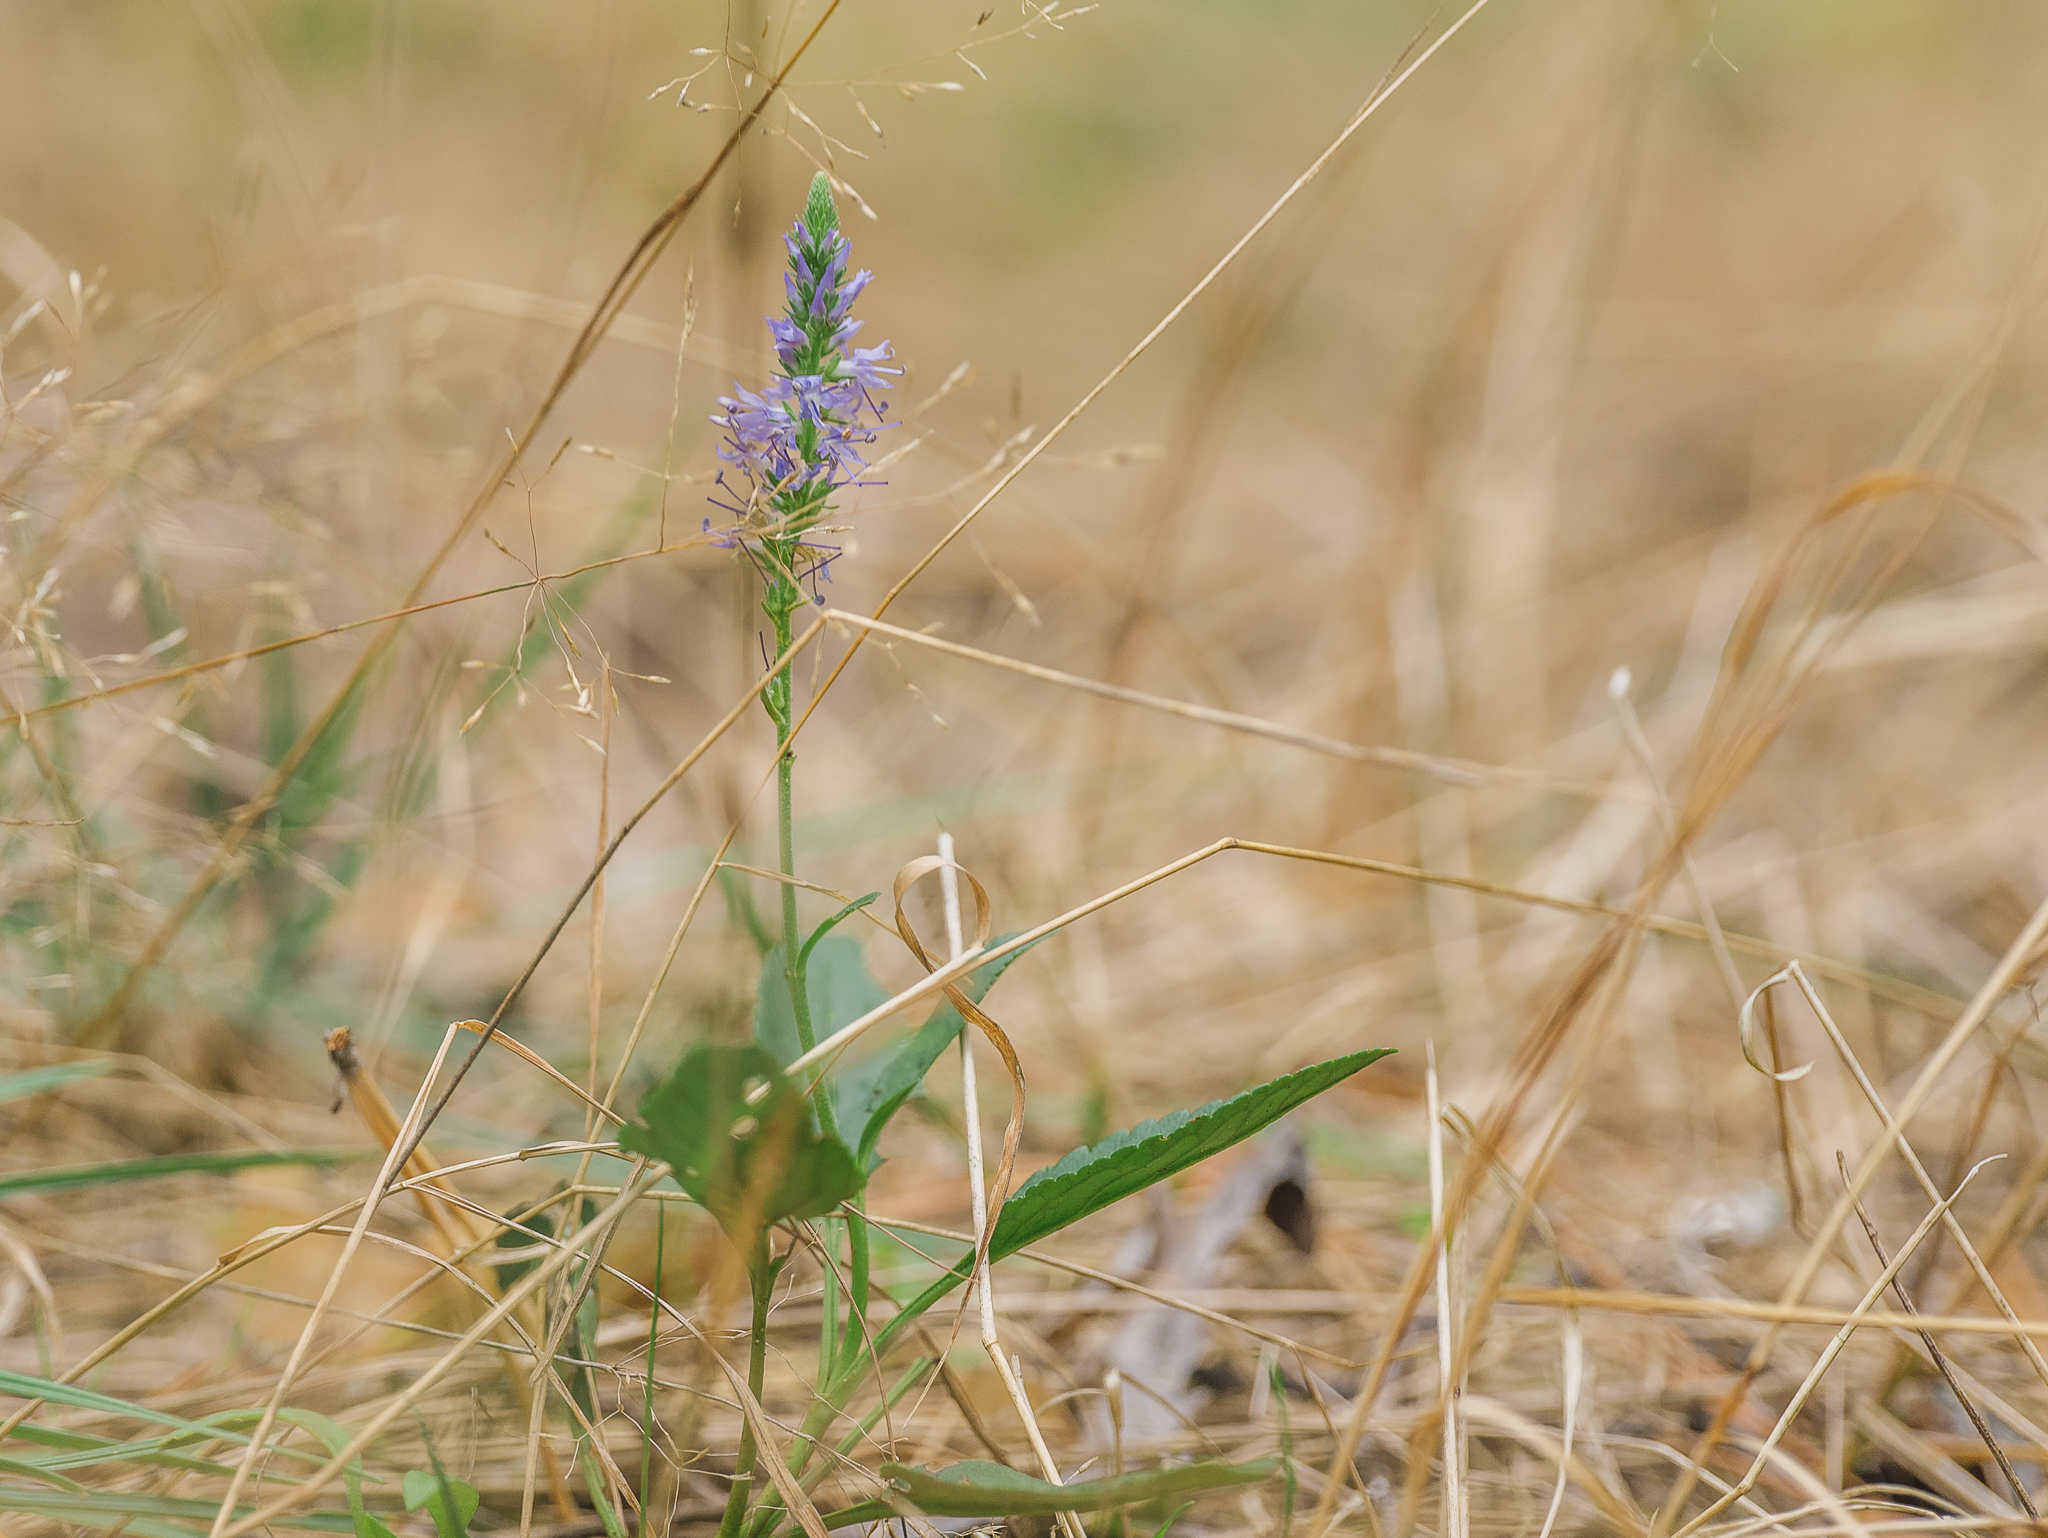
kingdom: Plantae
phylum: Tracheophyta
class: Magnoliopsida
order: Lamiales
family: Plantaginaceae
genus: Veronica
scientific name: Veronica spicata
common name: Spiked speedwell
